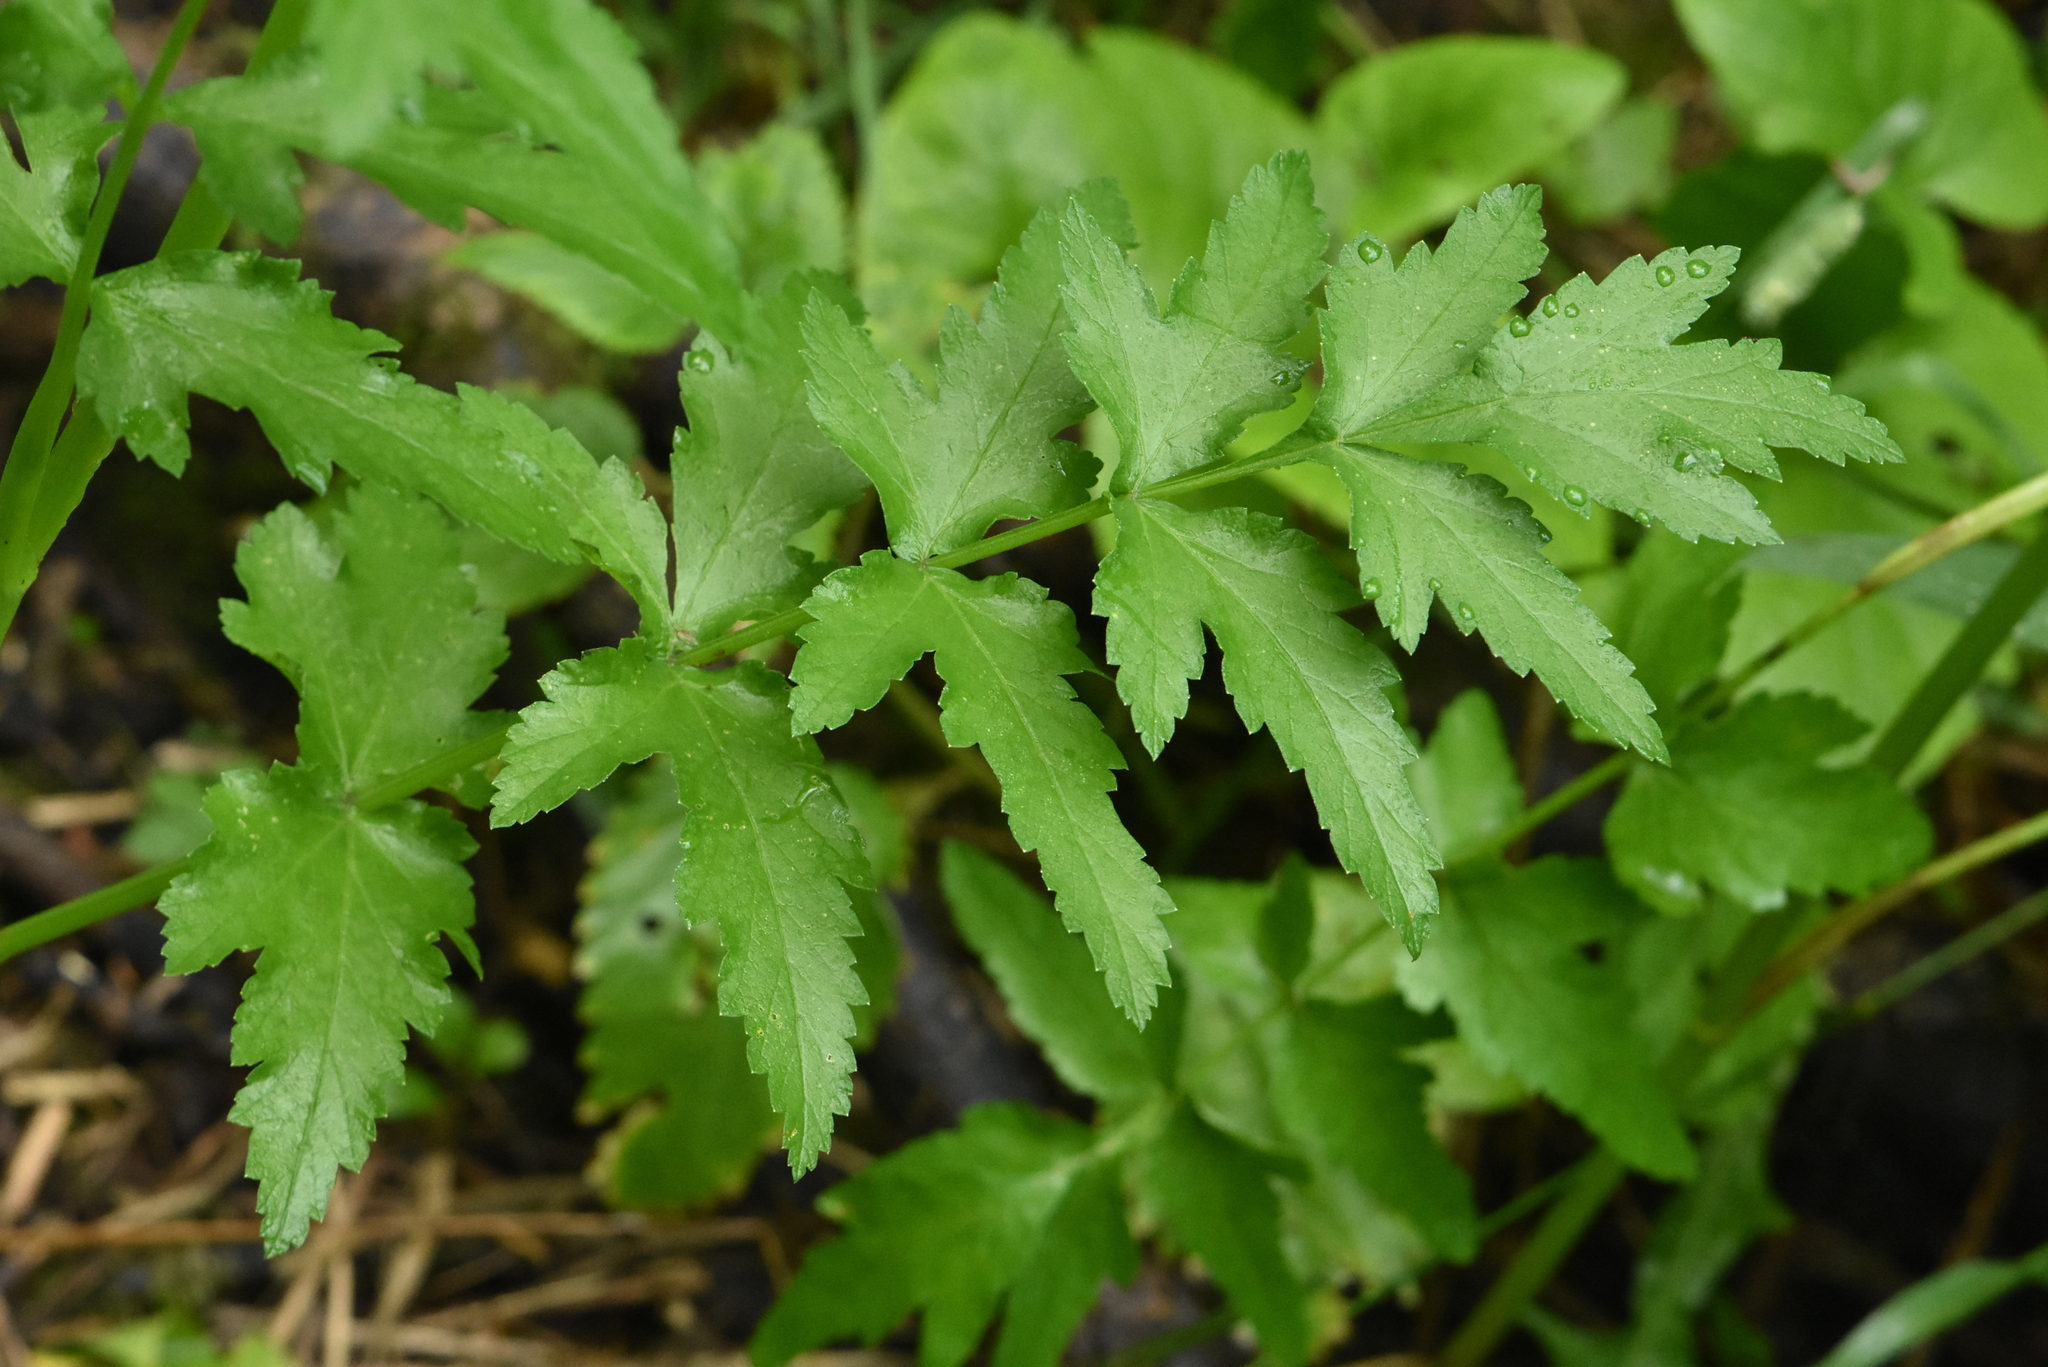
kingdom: Plantae
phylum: Tracheophyta
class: Magnoliopsida
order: Apiales
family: Apiaceae
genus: Pastinaca
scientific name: Pastinaca sativa
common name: Wild parsnip
